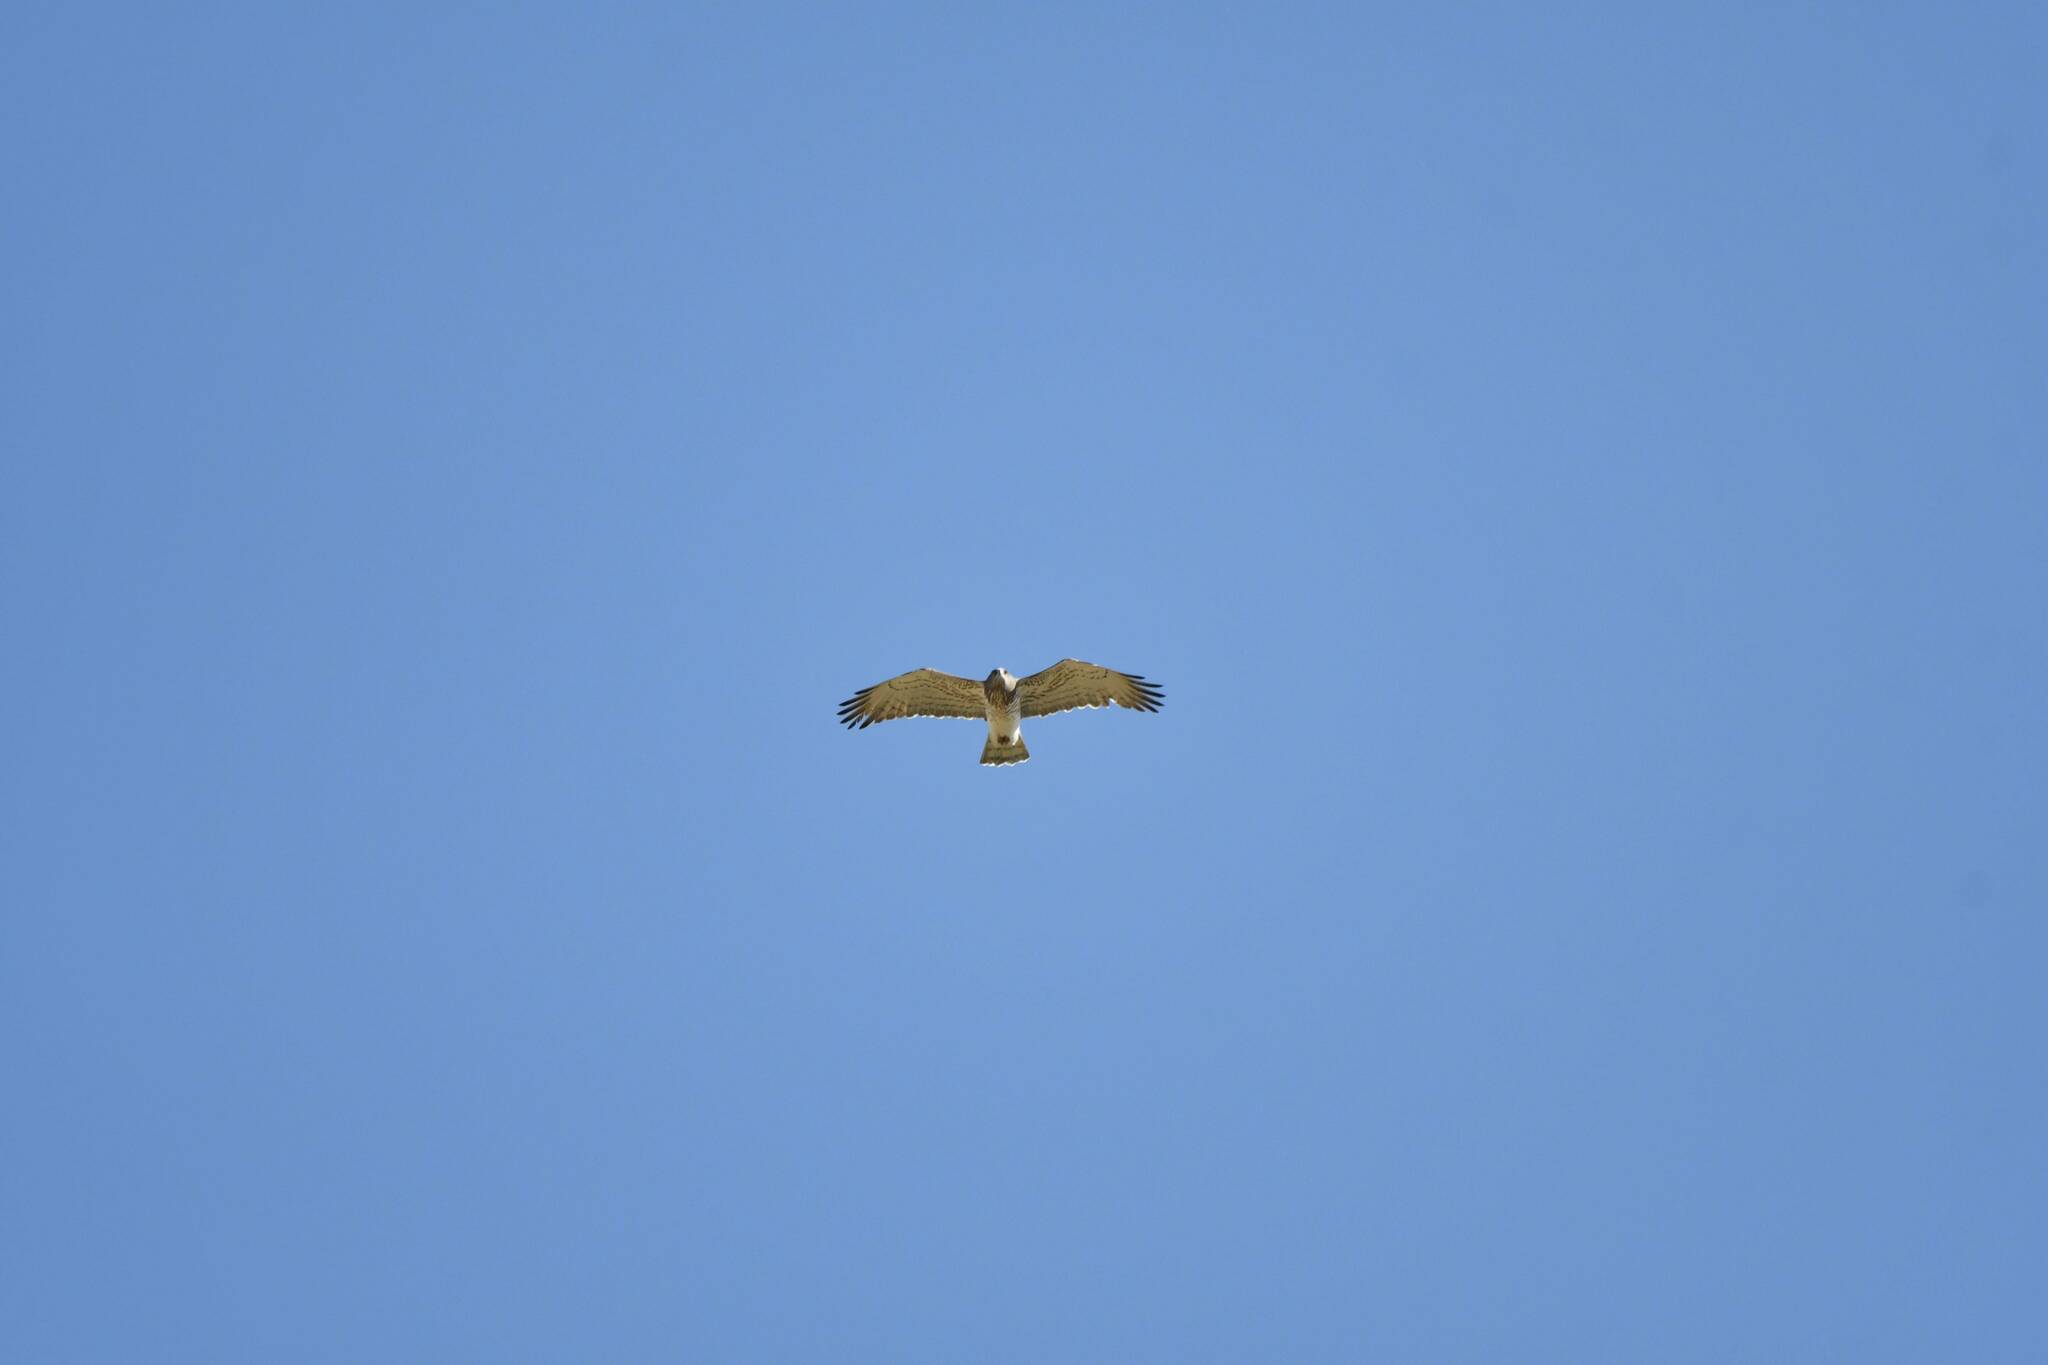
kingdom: Animalia
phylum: Chordata
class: Aves
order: Accipitriformes
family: Accipitridae
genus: Circaetus
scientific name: Circaetus gallicus
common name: Short-toed snake eagle
